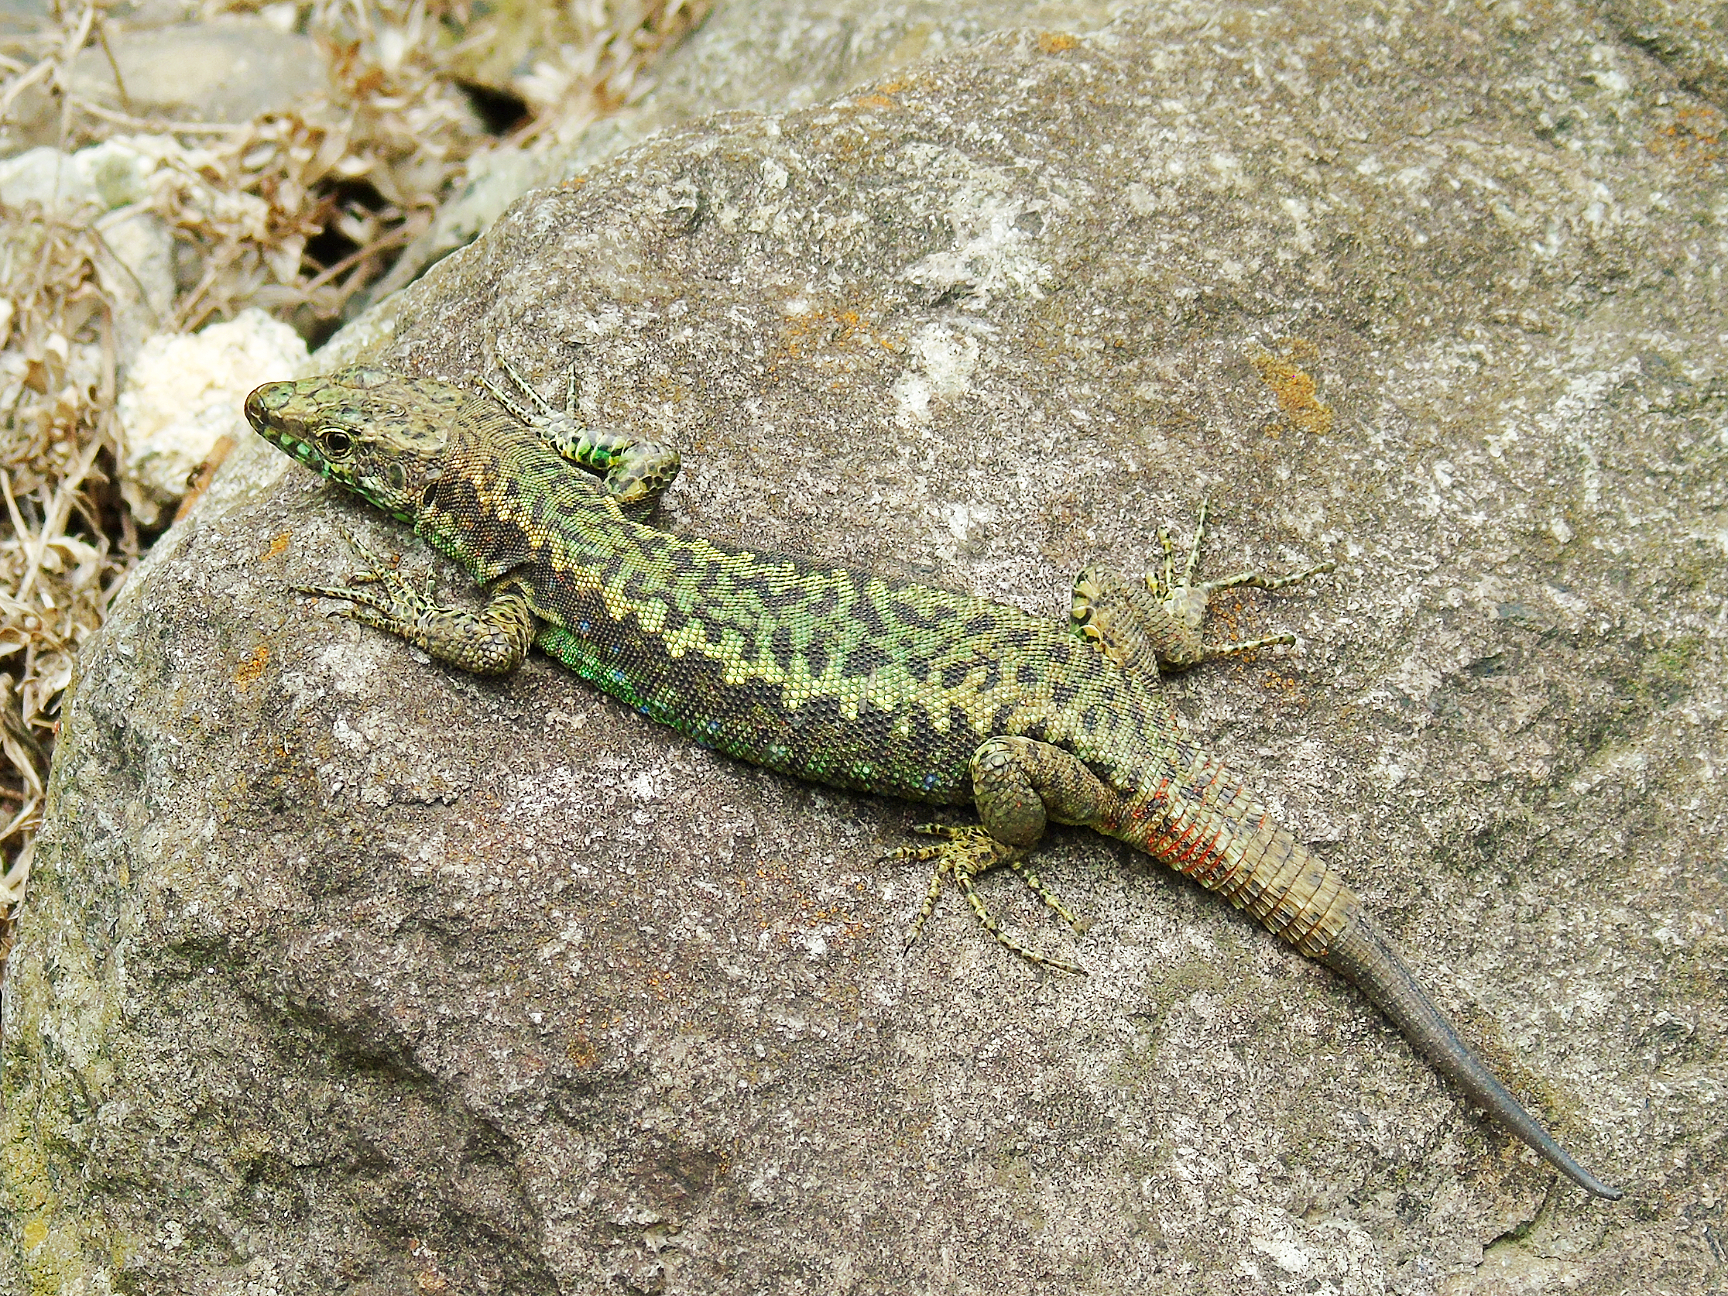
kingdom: Animalia
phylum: Chordata
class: Squamata
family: Lacertidae
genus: Darevskia
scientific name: Darevskia rudis
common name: Spiny-tailed lizard
